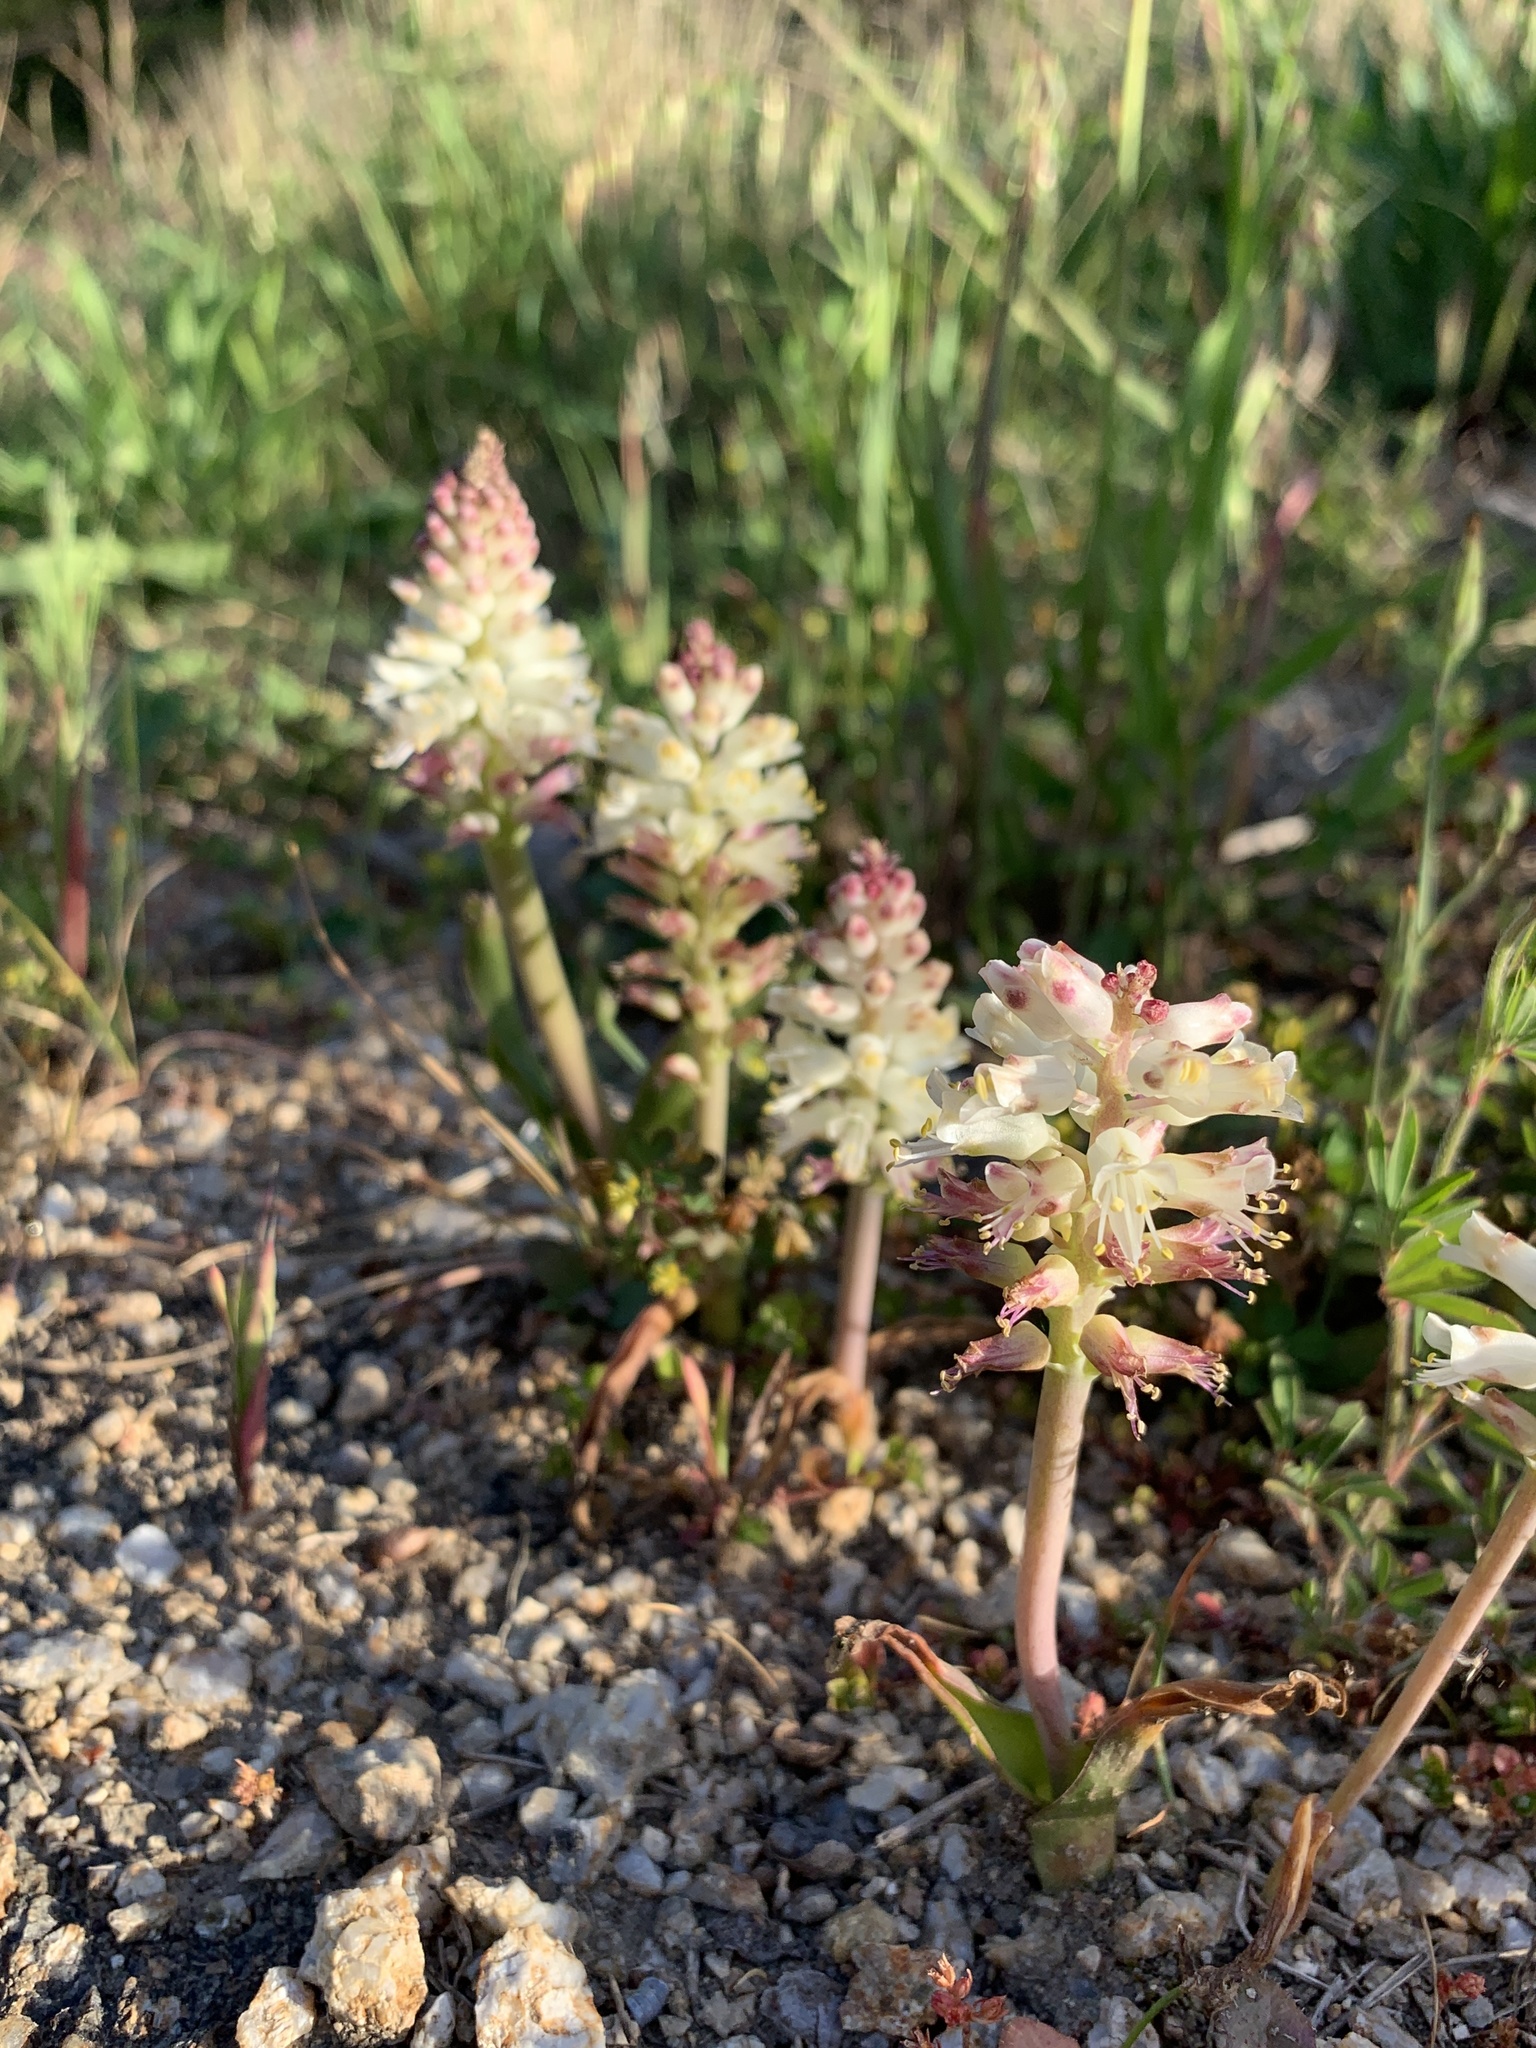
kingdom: Plantae
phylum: Tracheophyta
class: Liliopsida
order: Asparagales
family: Asparagaceae
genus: Lachenalia
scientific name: Lachenalia pallida
